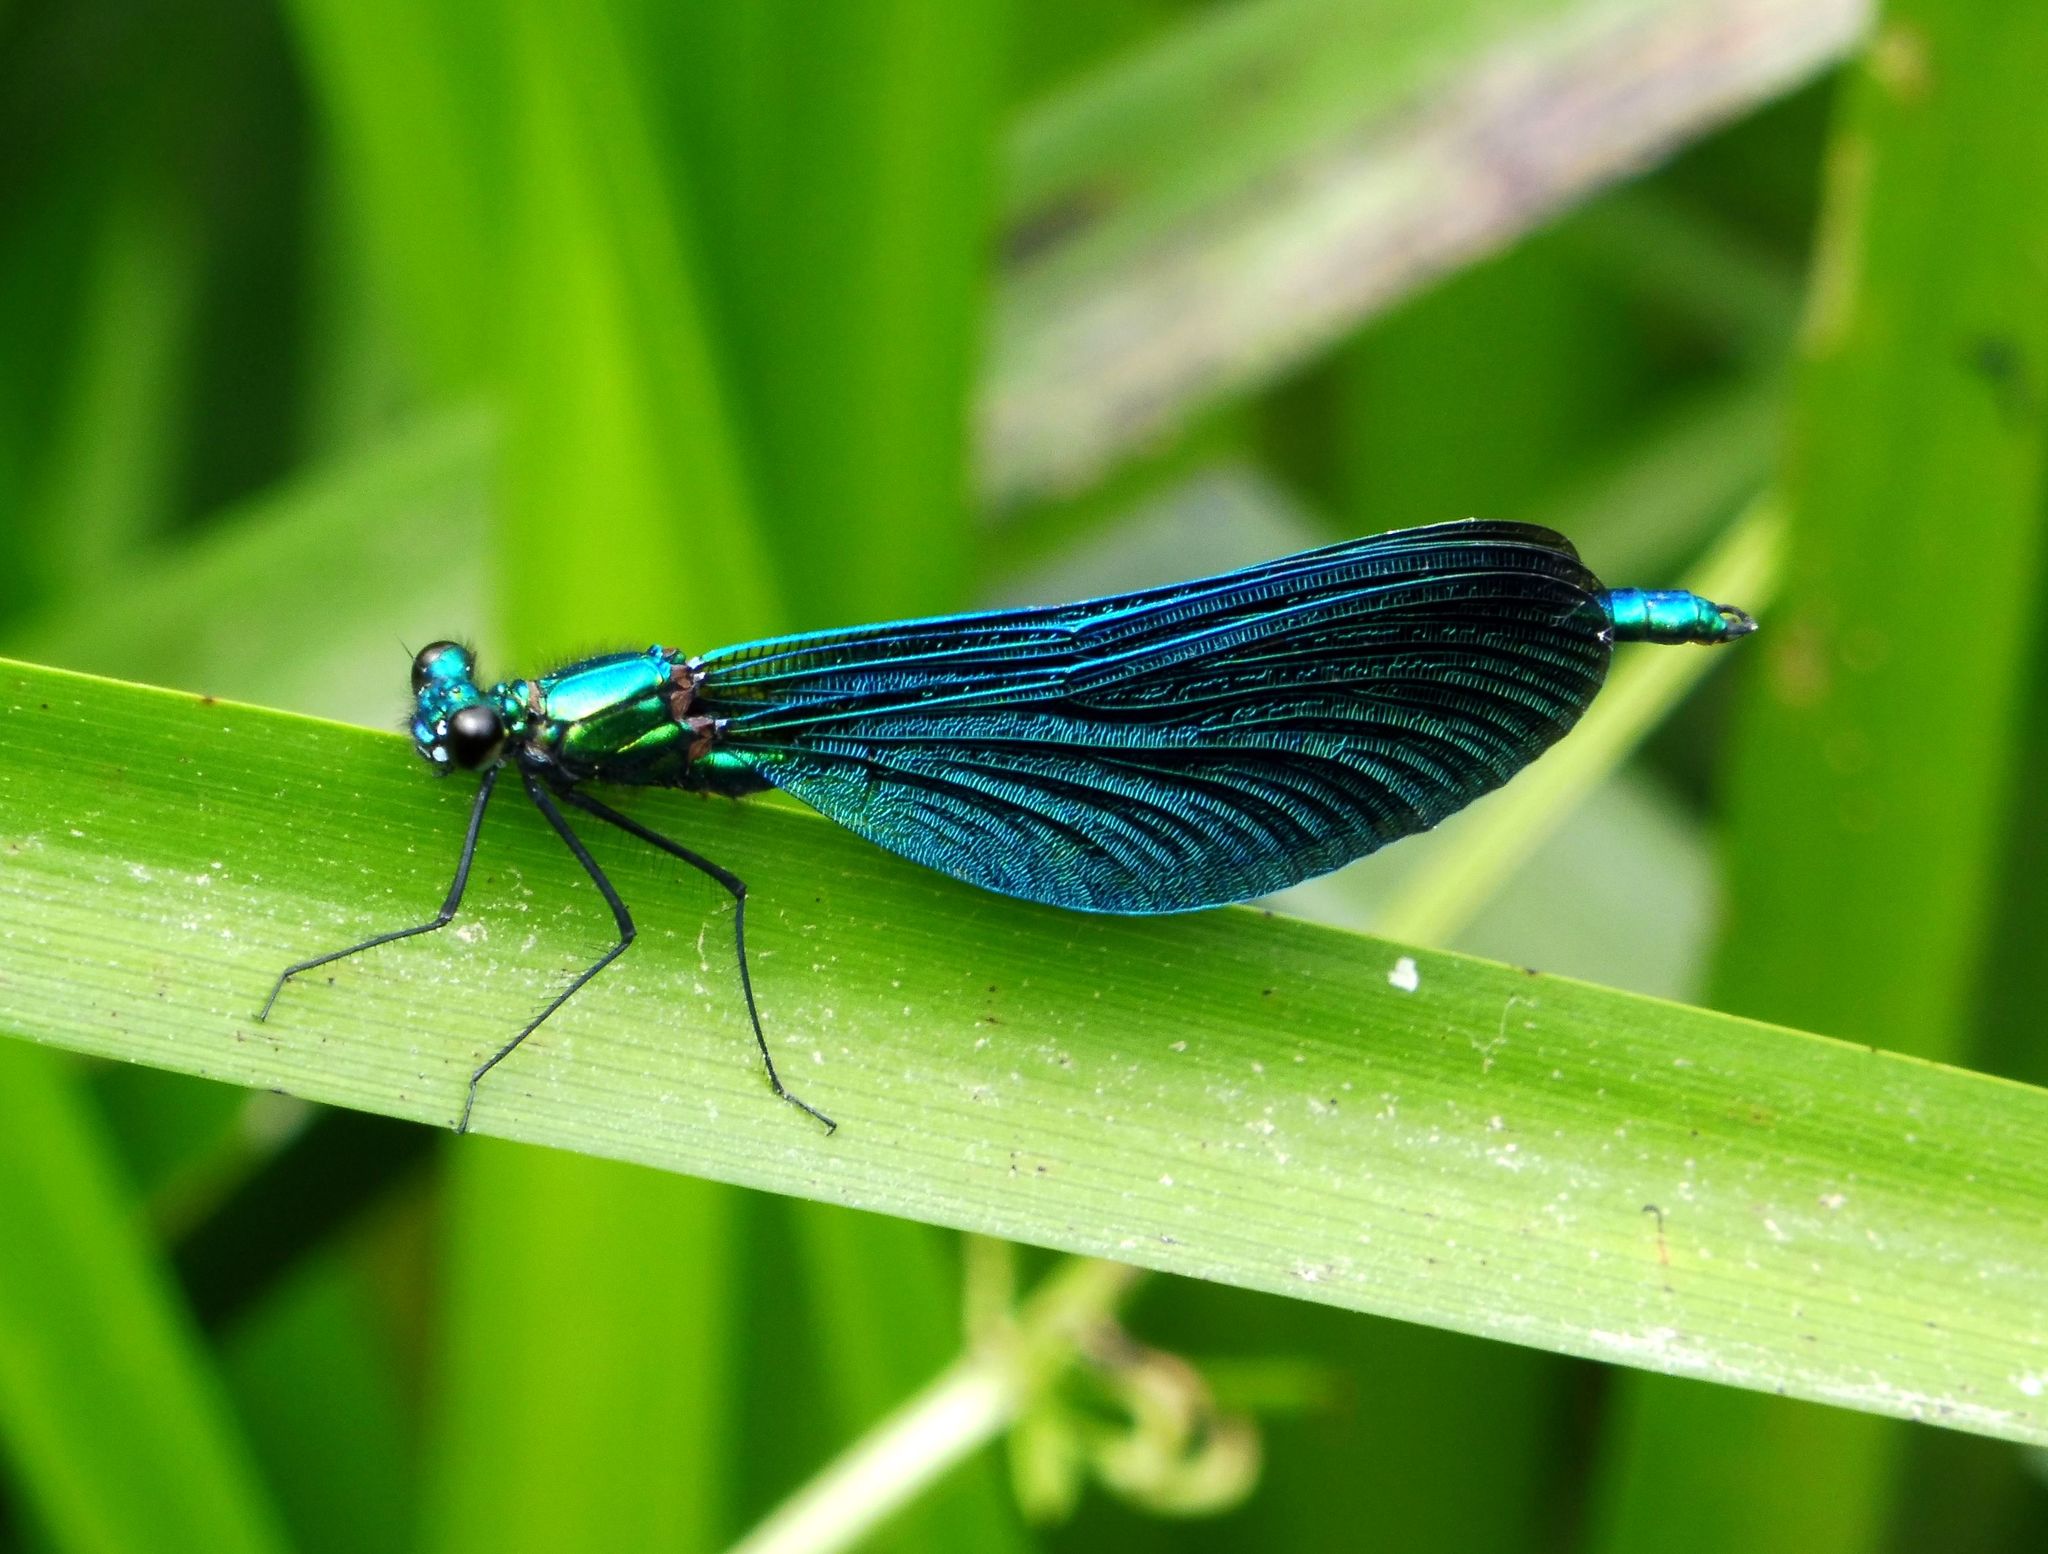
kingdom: Animalia
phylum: Arthropoda
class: Insecta
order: Odonata
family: Calopterygidae
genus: Calopteryx
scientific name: Calopteryx virgo
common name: Beautiful demoiselle
